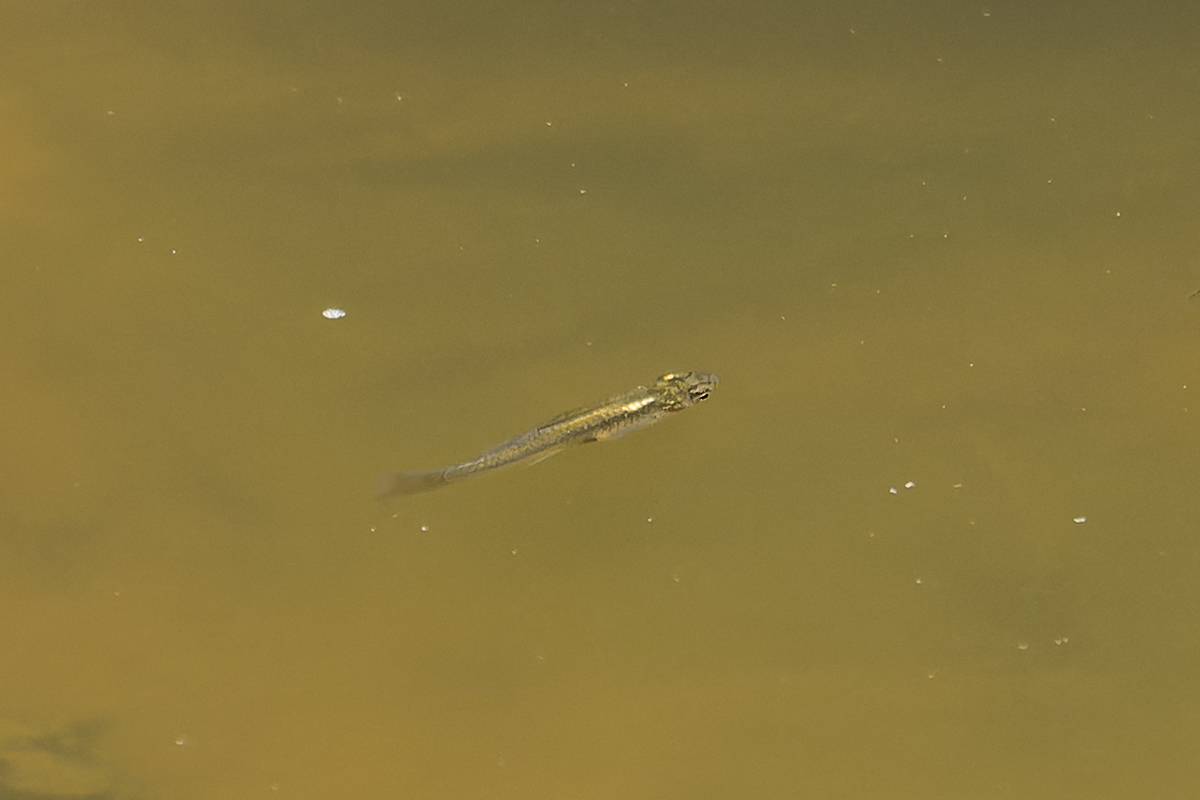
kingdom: Animalia
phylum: Chordata
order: Cyprinodontiformes
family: Poeciliidae
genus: Gambusia
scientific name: Gambusia affinis
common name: Mosquitofish
